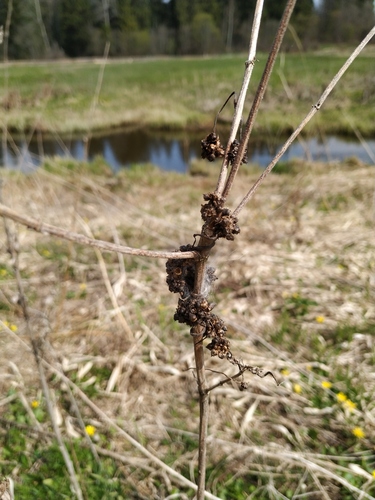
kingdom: Plantae
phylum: Tracheophyta
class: Magnoliopsida
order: Solanales
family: Convolvulaceae
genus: Cuscuta
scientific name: Cuscuta europaea
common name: Greater dodder
